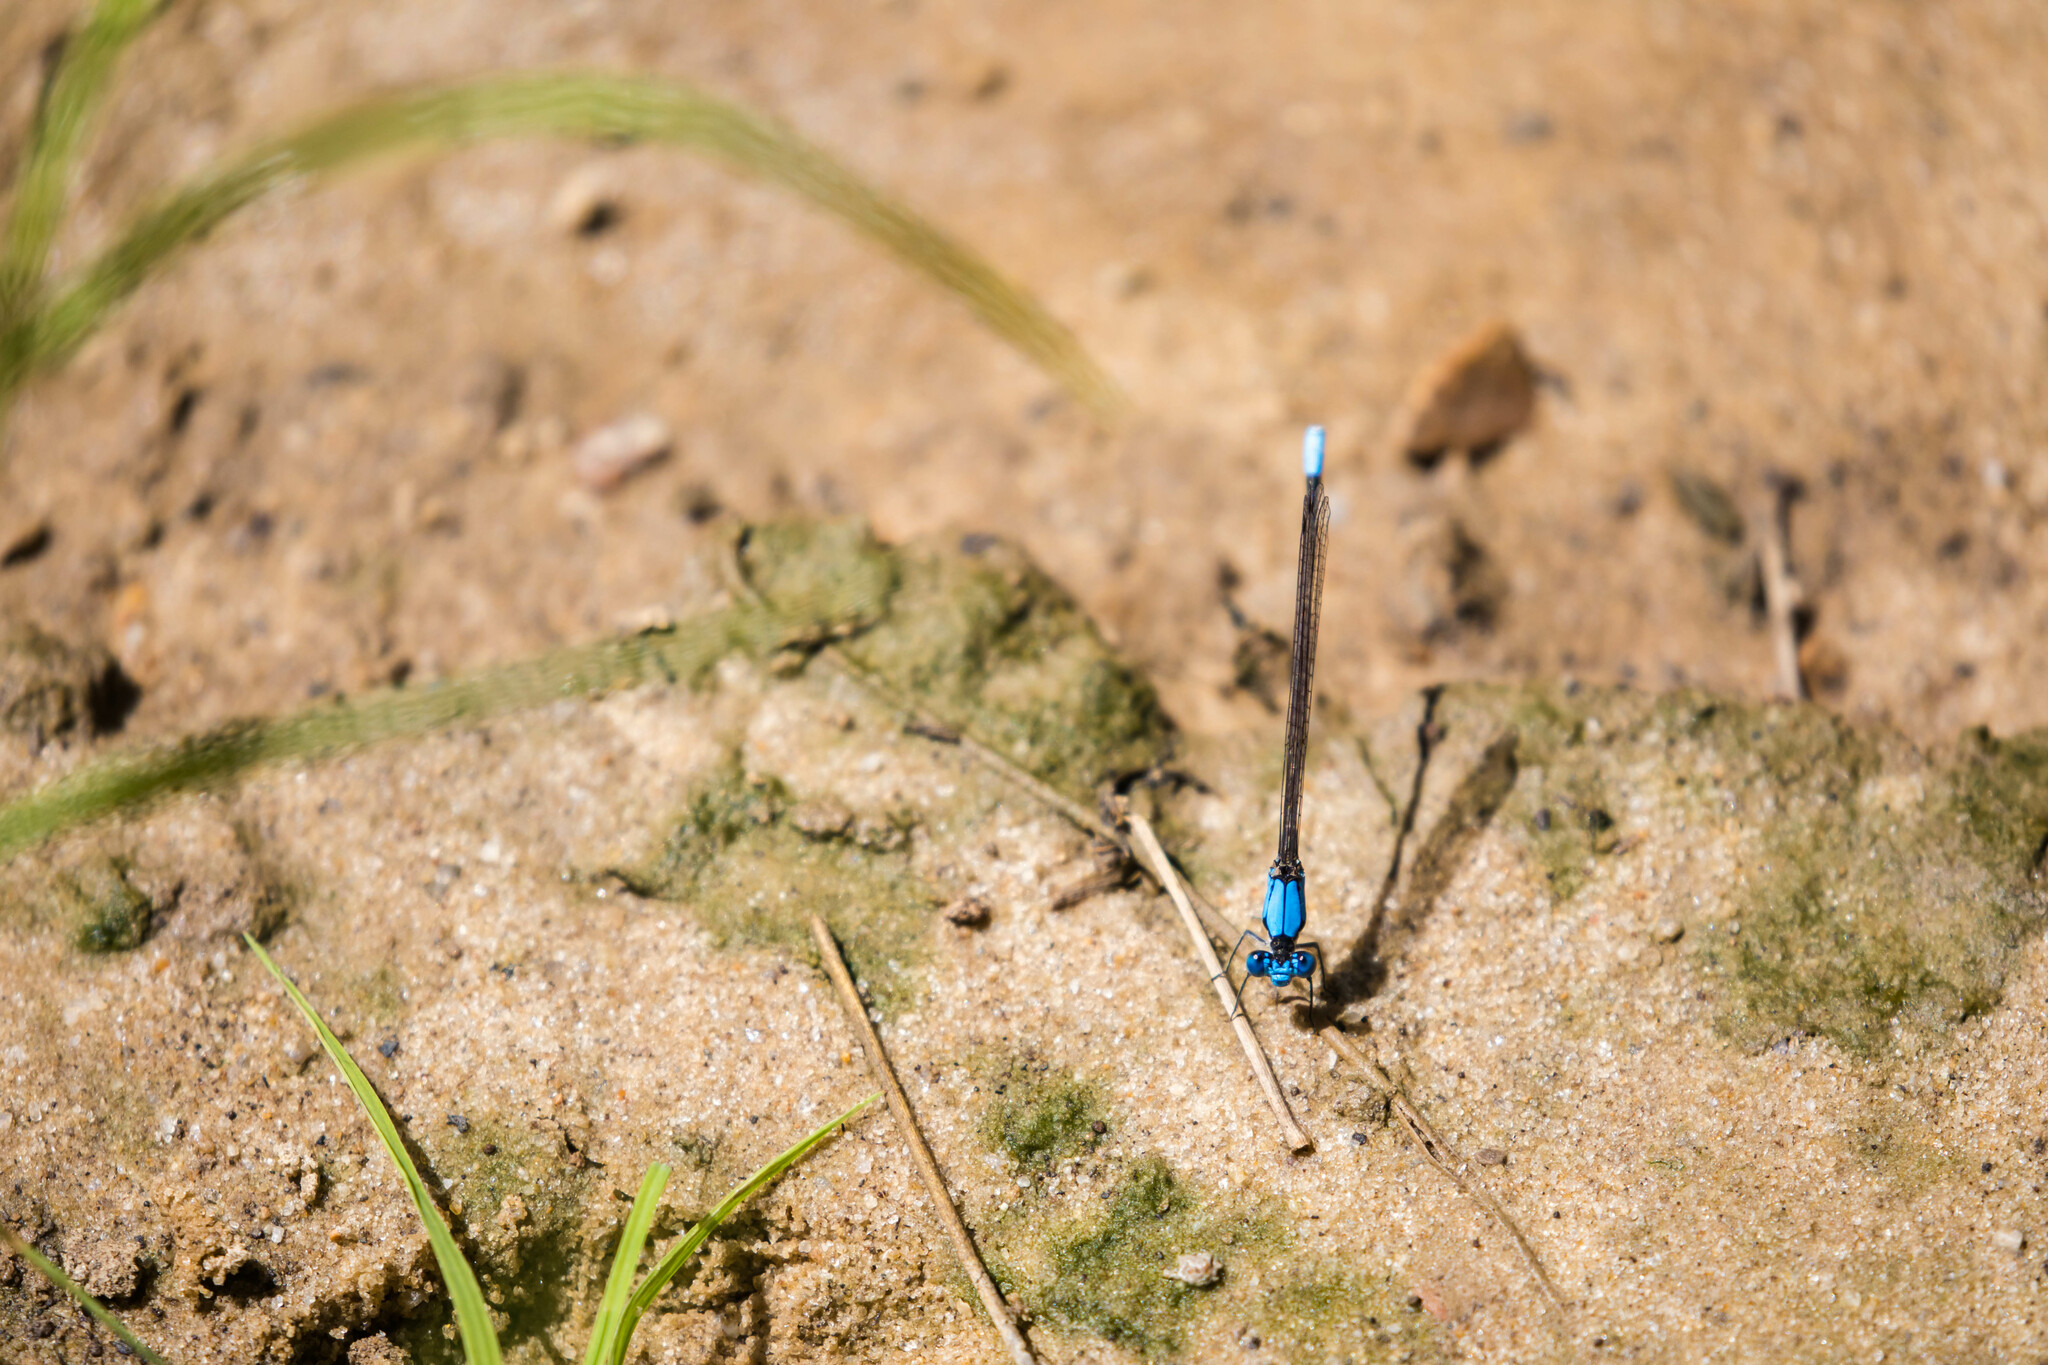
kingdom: Animalia
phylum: Arthropoda
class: Insecta
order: Odonata
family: Coenagrionidae
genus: Argia
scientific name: Argia apicalis
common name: Blue-fronted dancer
